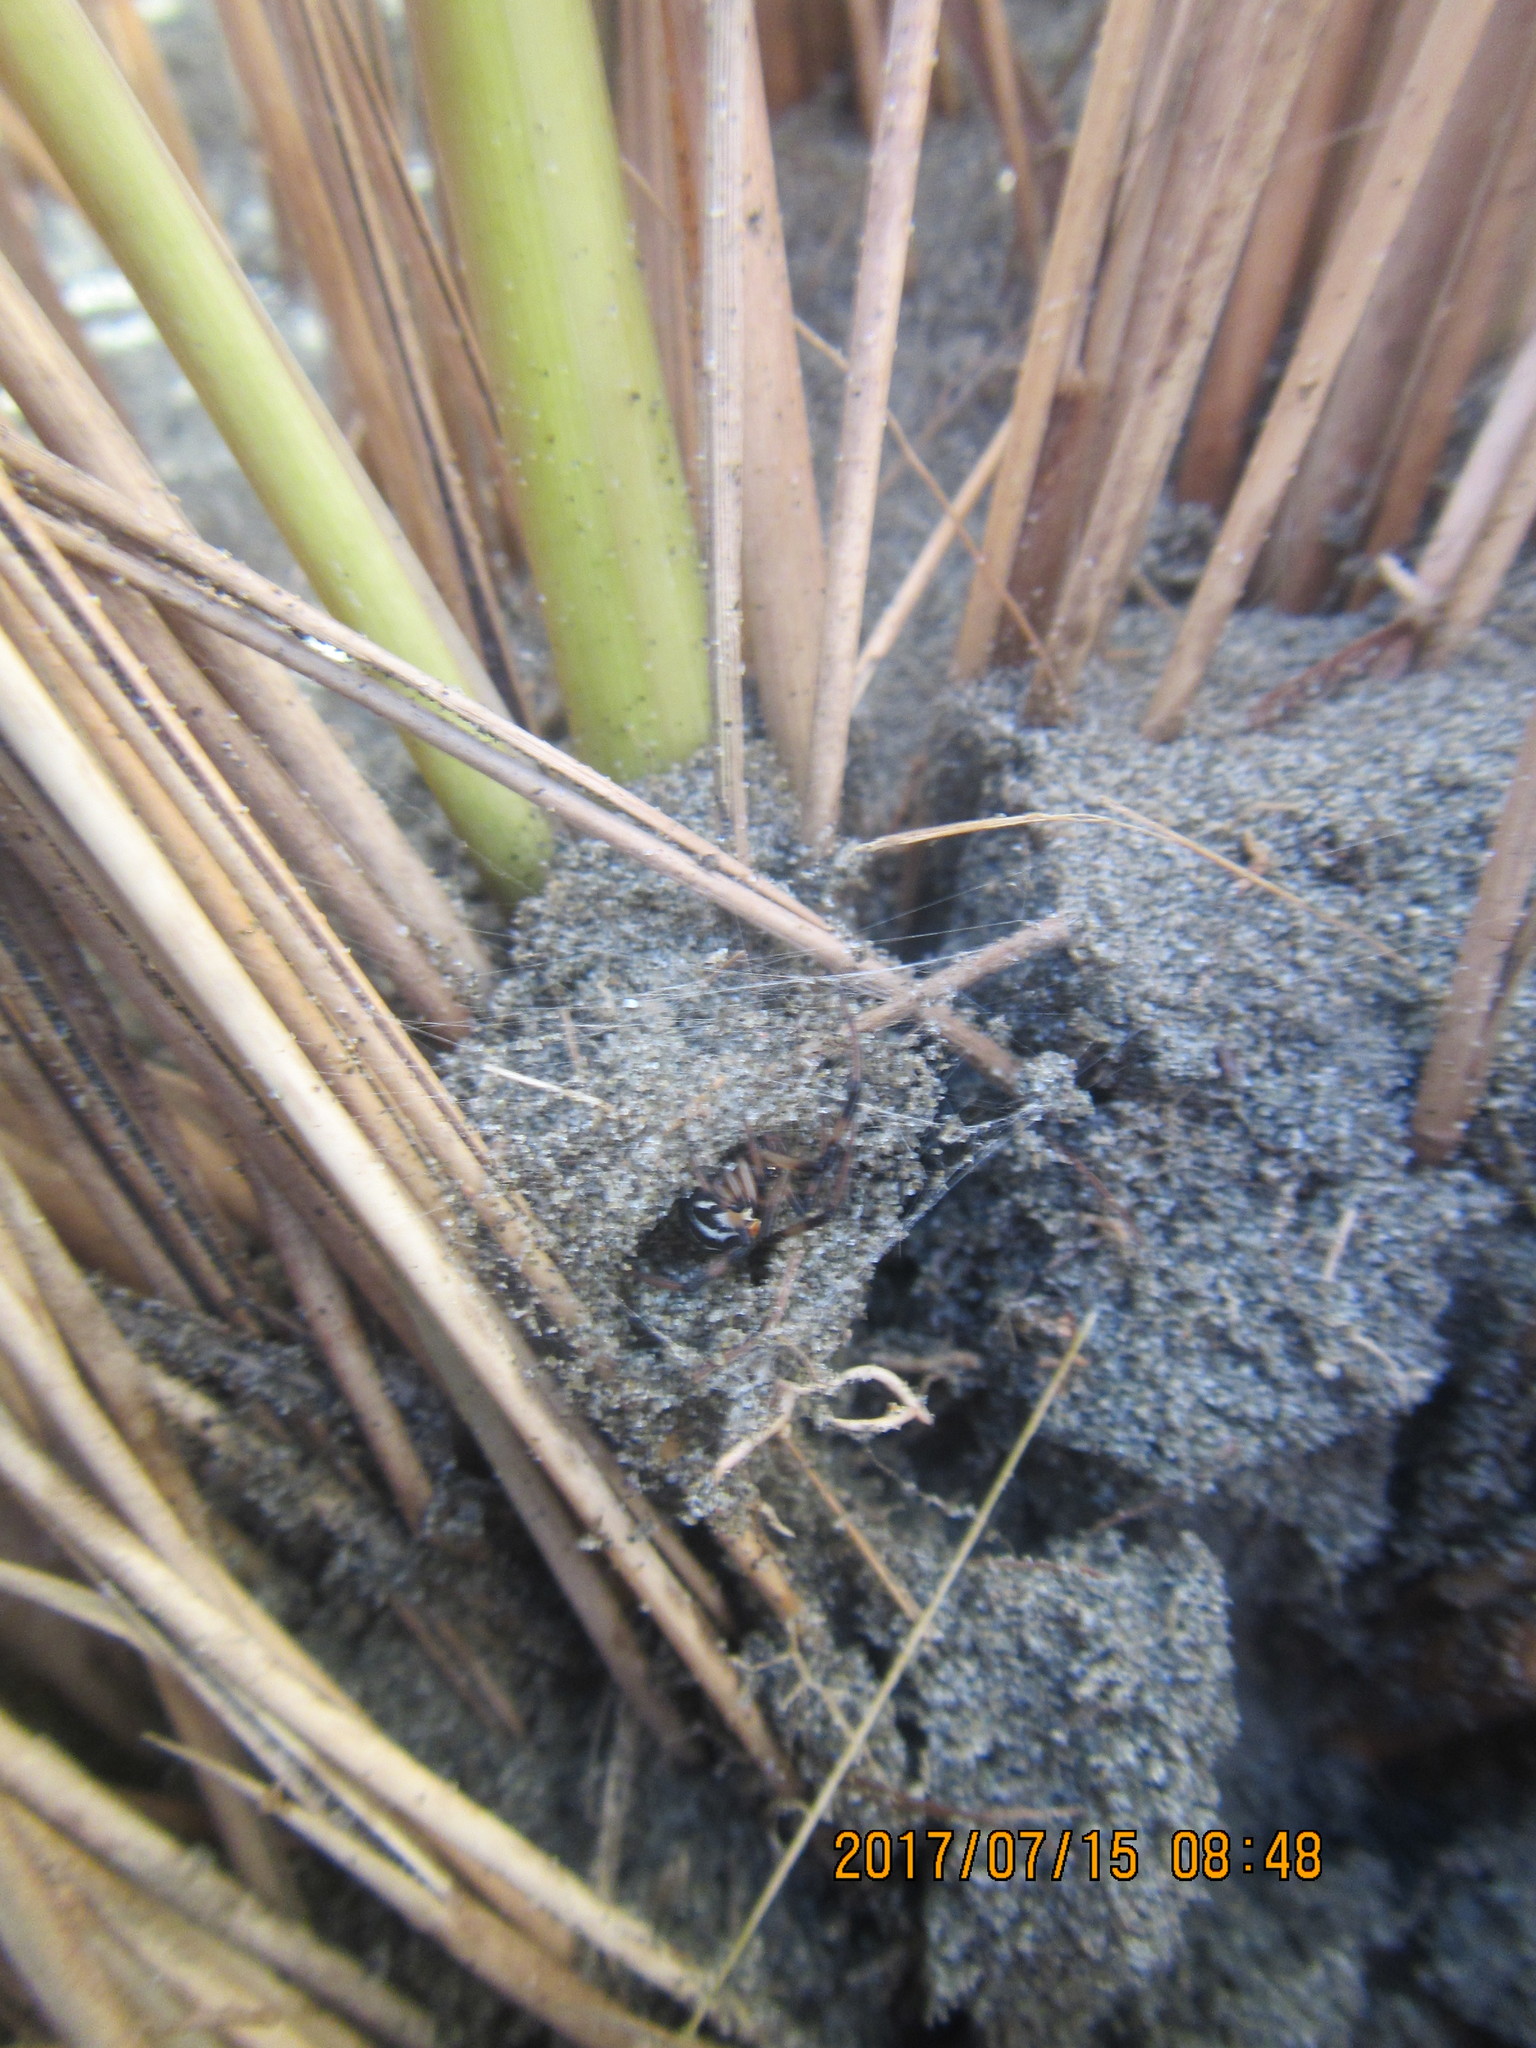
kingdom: Animalia
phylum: Arthropoda
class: Arachnida
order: Araneae
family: Theridiidae
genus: Latrodectus
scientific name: Latrodectus katipo
